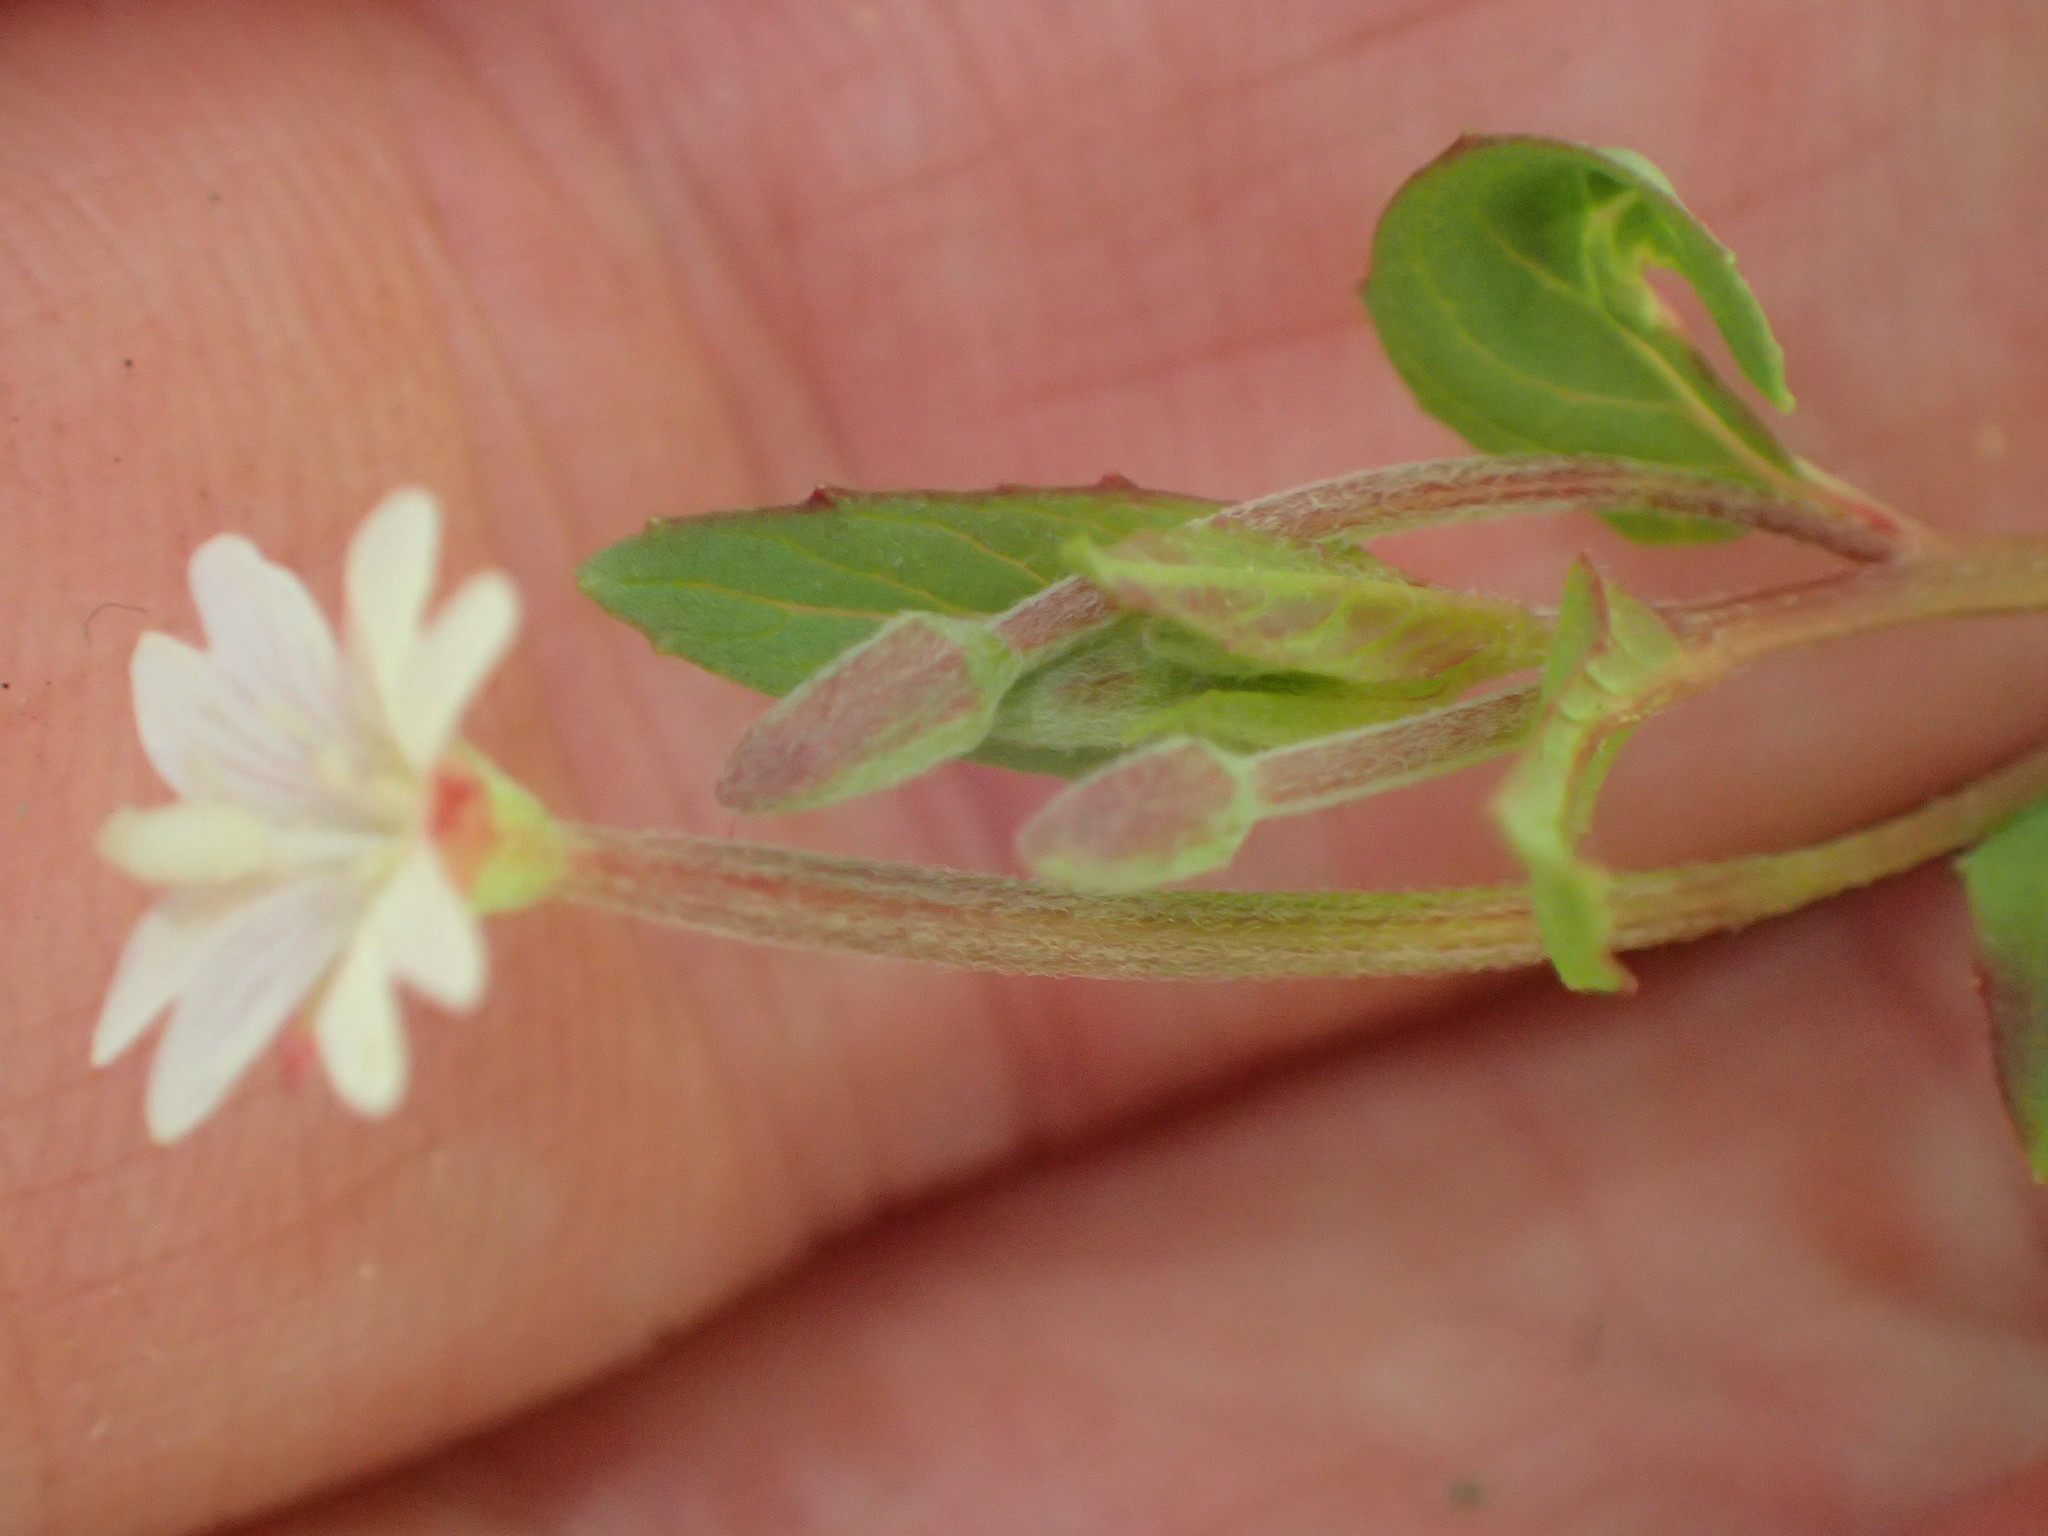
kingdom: Plantae
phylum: Tracheophyta
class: Magnoliopsida
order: Myrtales
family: Onagraceae
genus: Epilobium
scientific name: Epilobium ciliatum
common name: American willowherb
